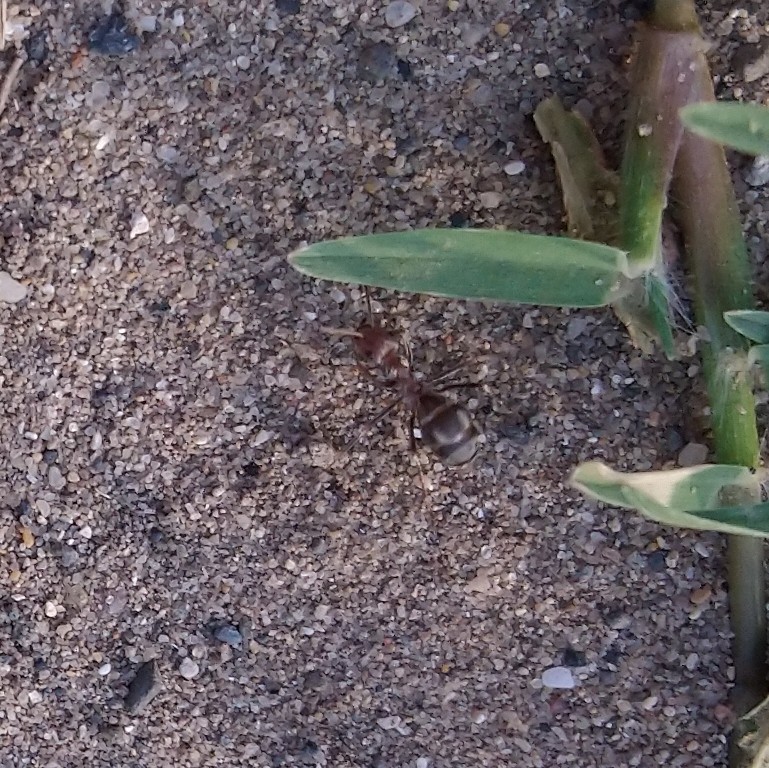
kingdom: Animalia
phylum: Arthropoda
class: Insecta
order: Hymenoptera
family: Formicidae
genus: Anoplolepis
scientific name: Anoplolepis steingroeveri
